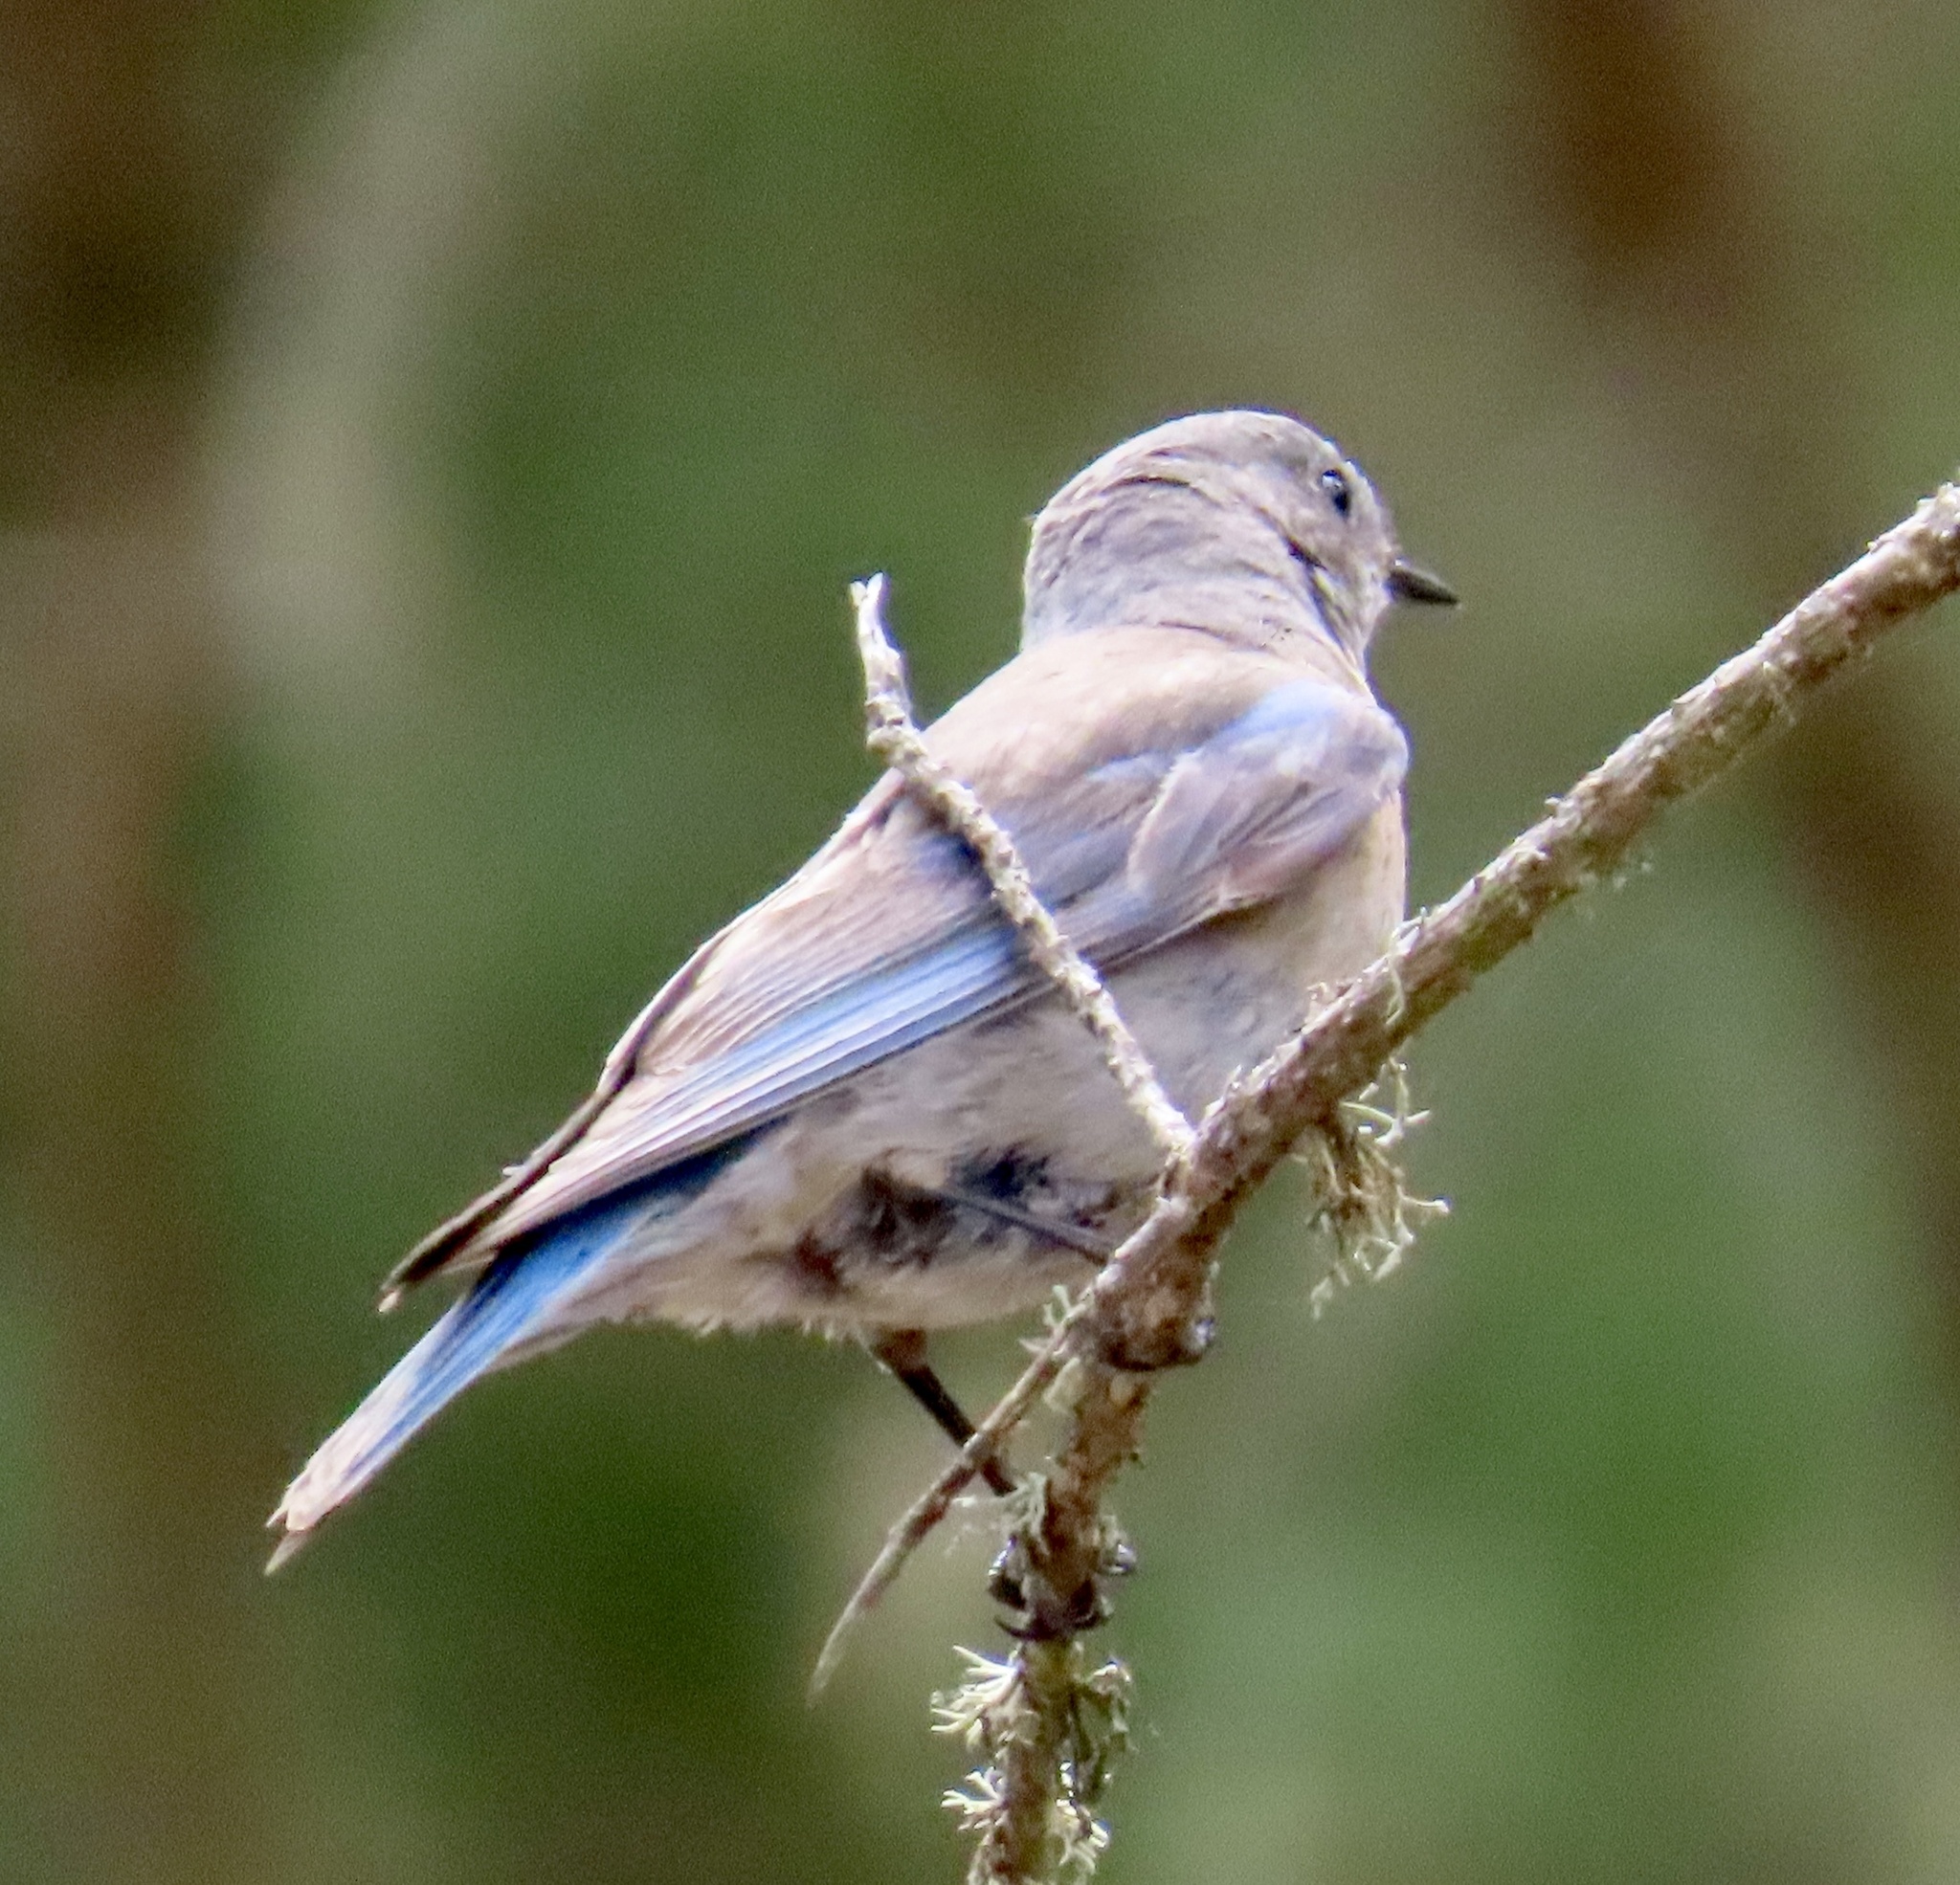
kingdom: Animalia
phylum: Chordata
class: Aves
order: Passeriformes
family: Turdidae
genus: Sialia
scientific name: Sialia mexicana
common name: Western bluebird
